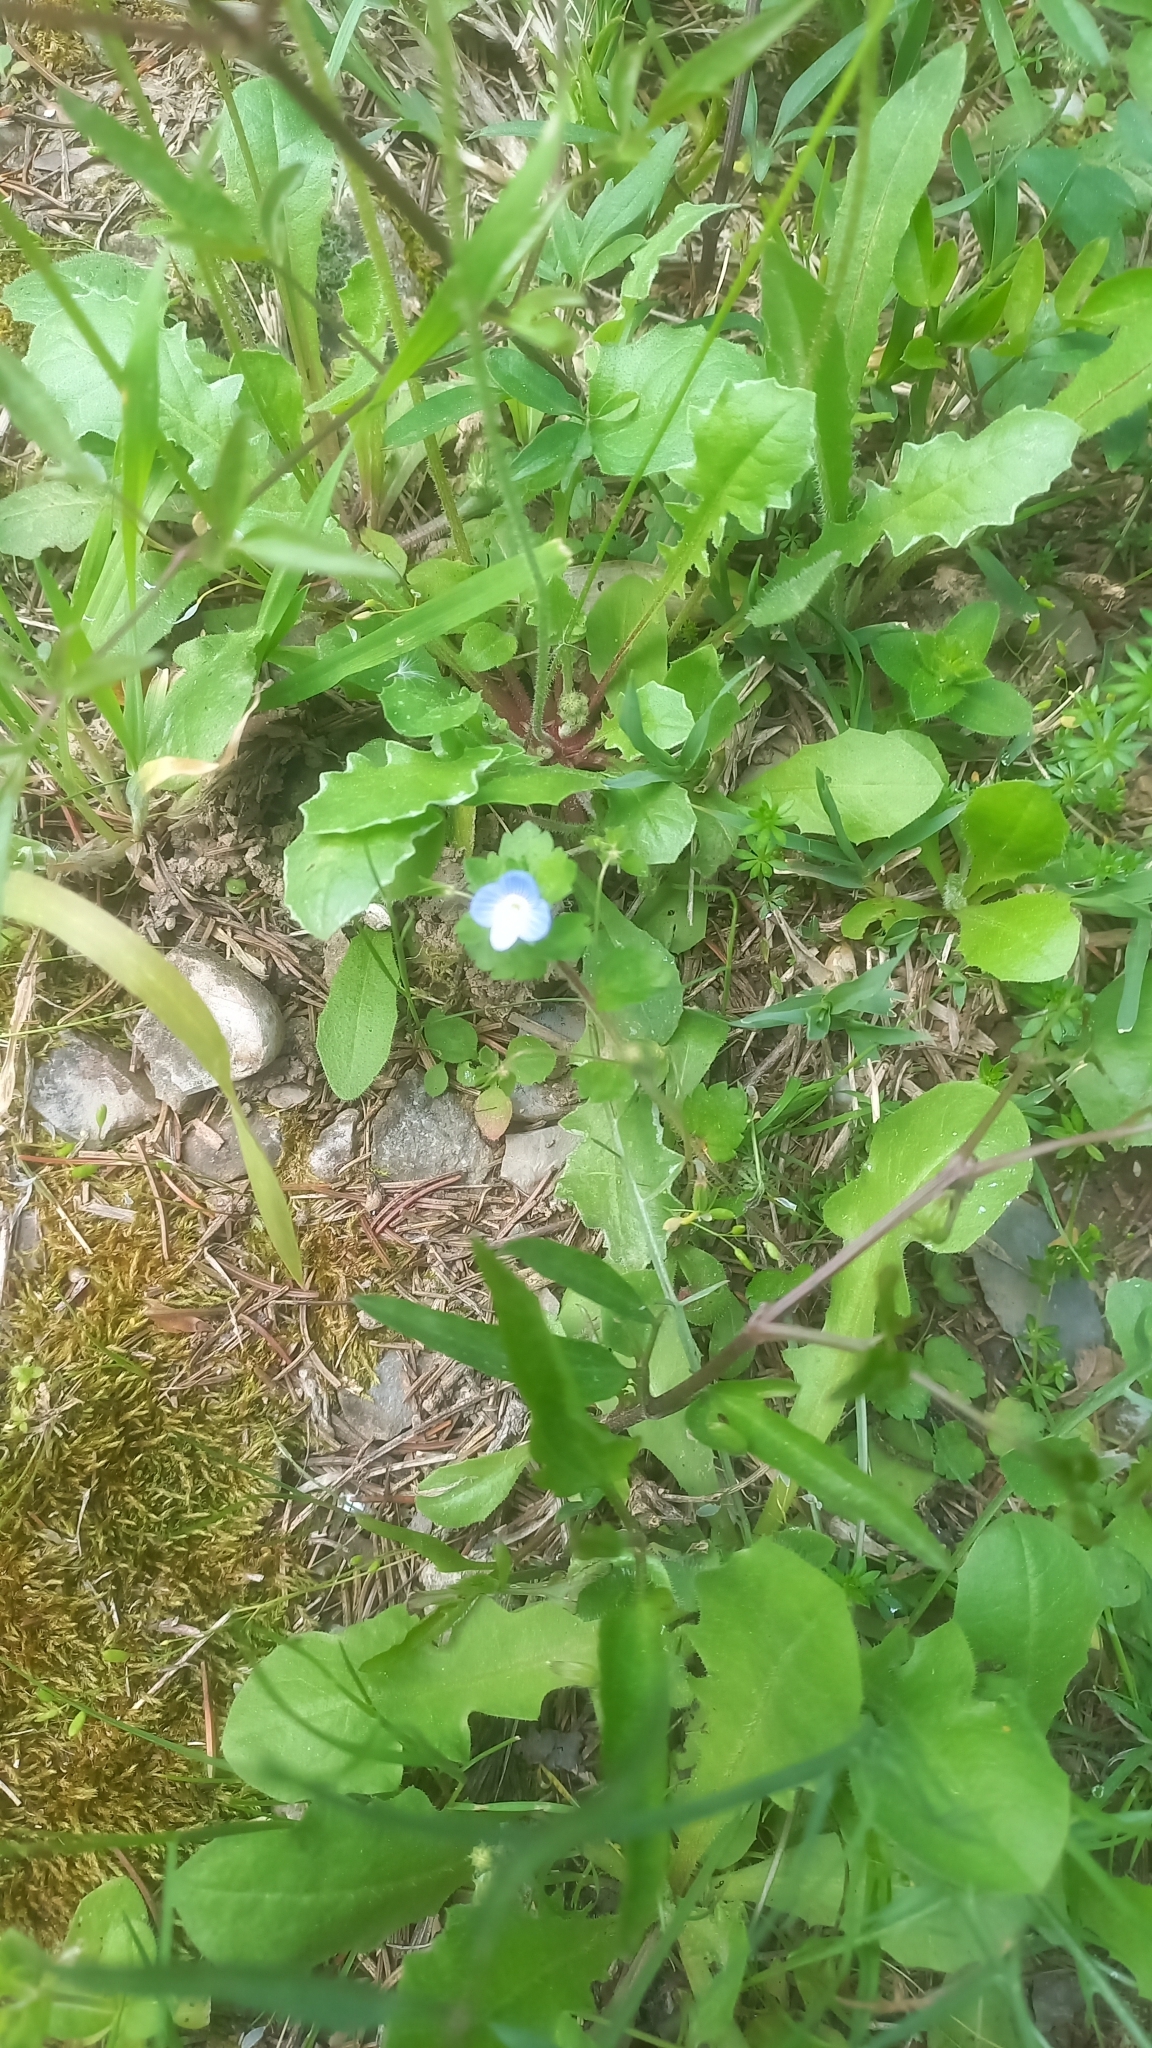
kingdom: Plantae
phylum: Tracheophyta
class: Magnoliopsida
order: Lamiales
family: Plantaginaceae
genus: Veronica
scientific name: Veronica persica
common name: Common field-speedwell
